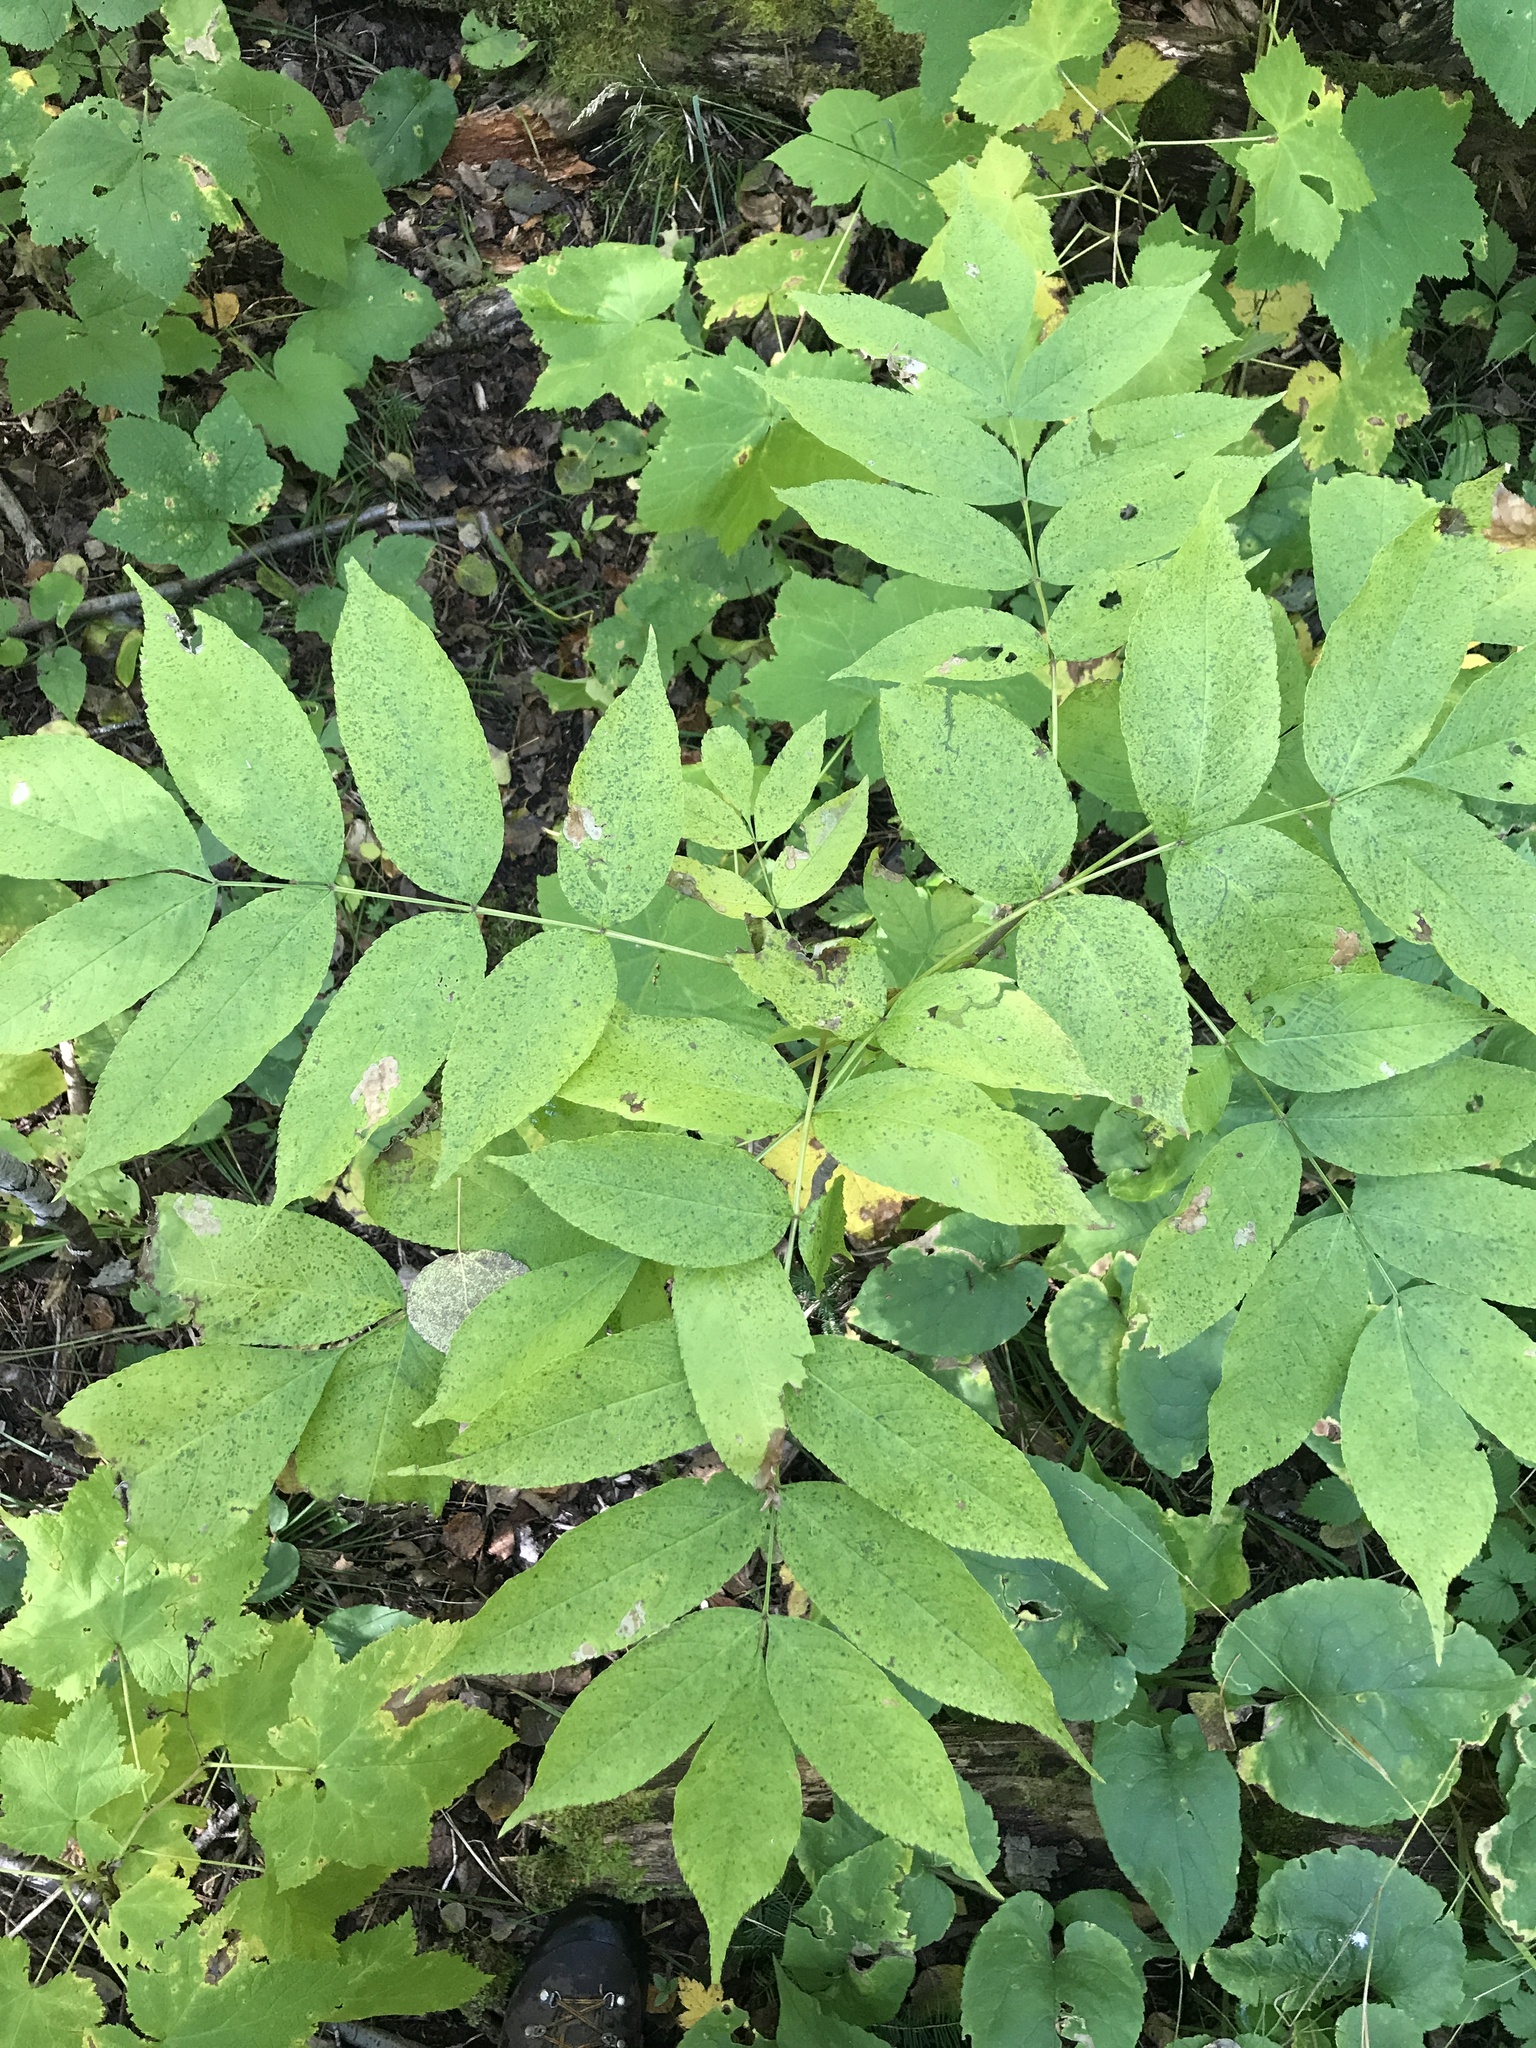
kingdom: Plantae
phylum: Tracheophyta
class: Magnoliopsida
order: Lamiales
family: Oleaceae
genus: Fraxinus
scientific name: Fraxinus nigra
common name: Black ash
